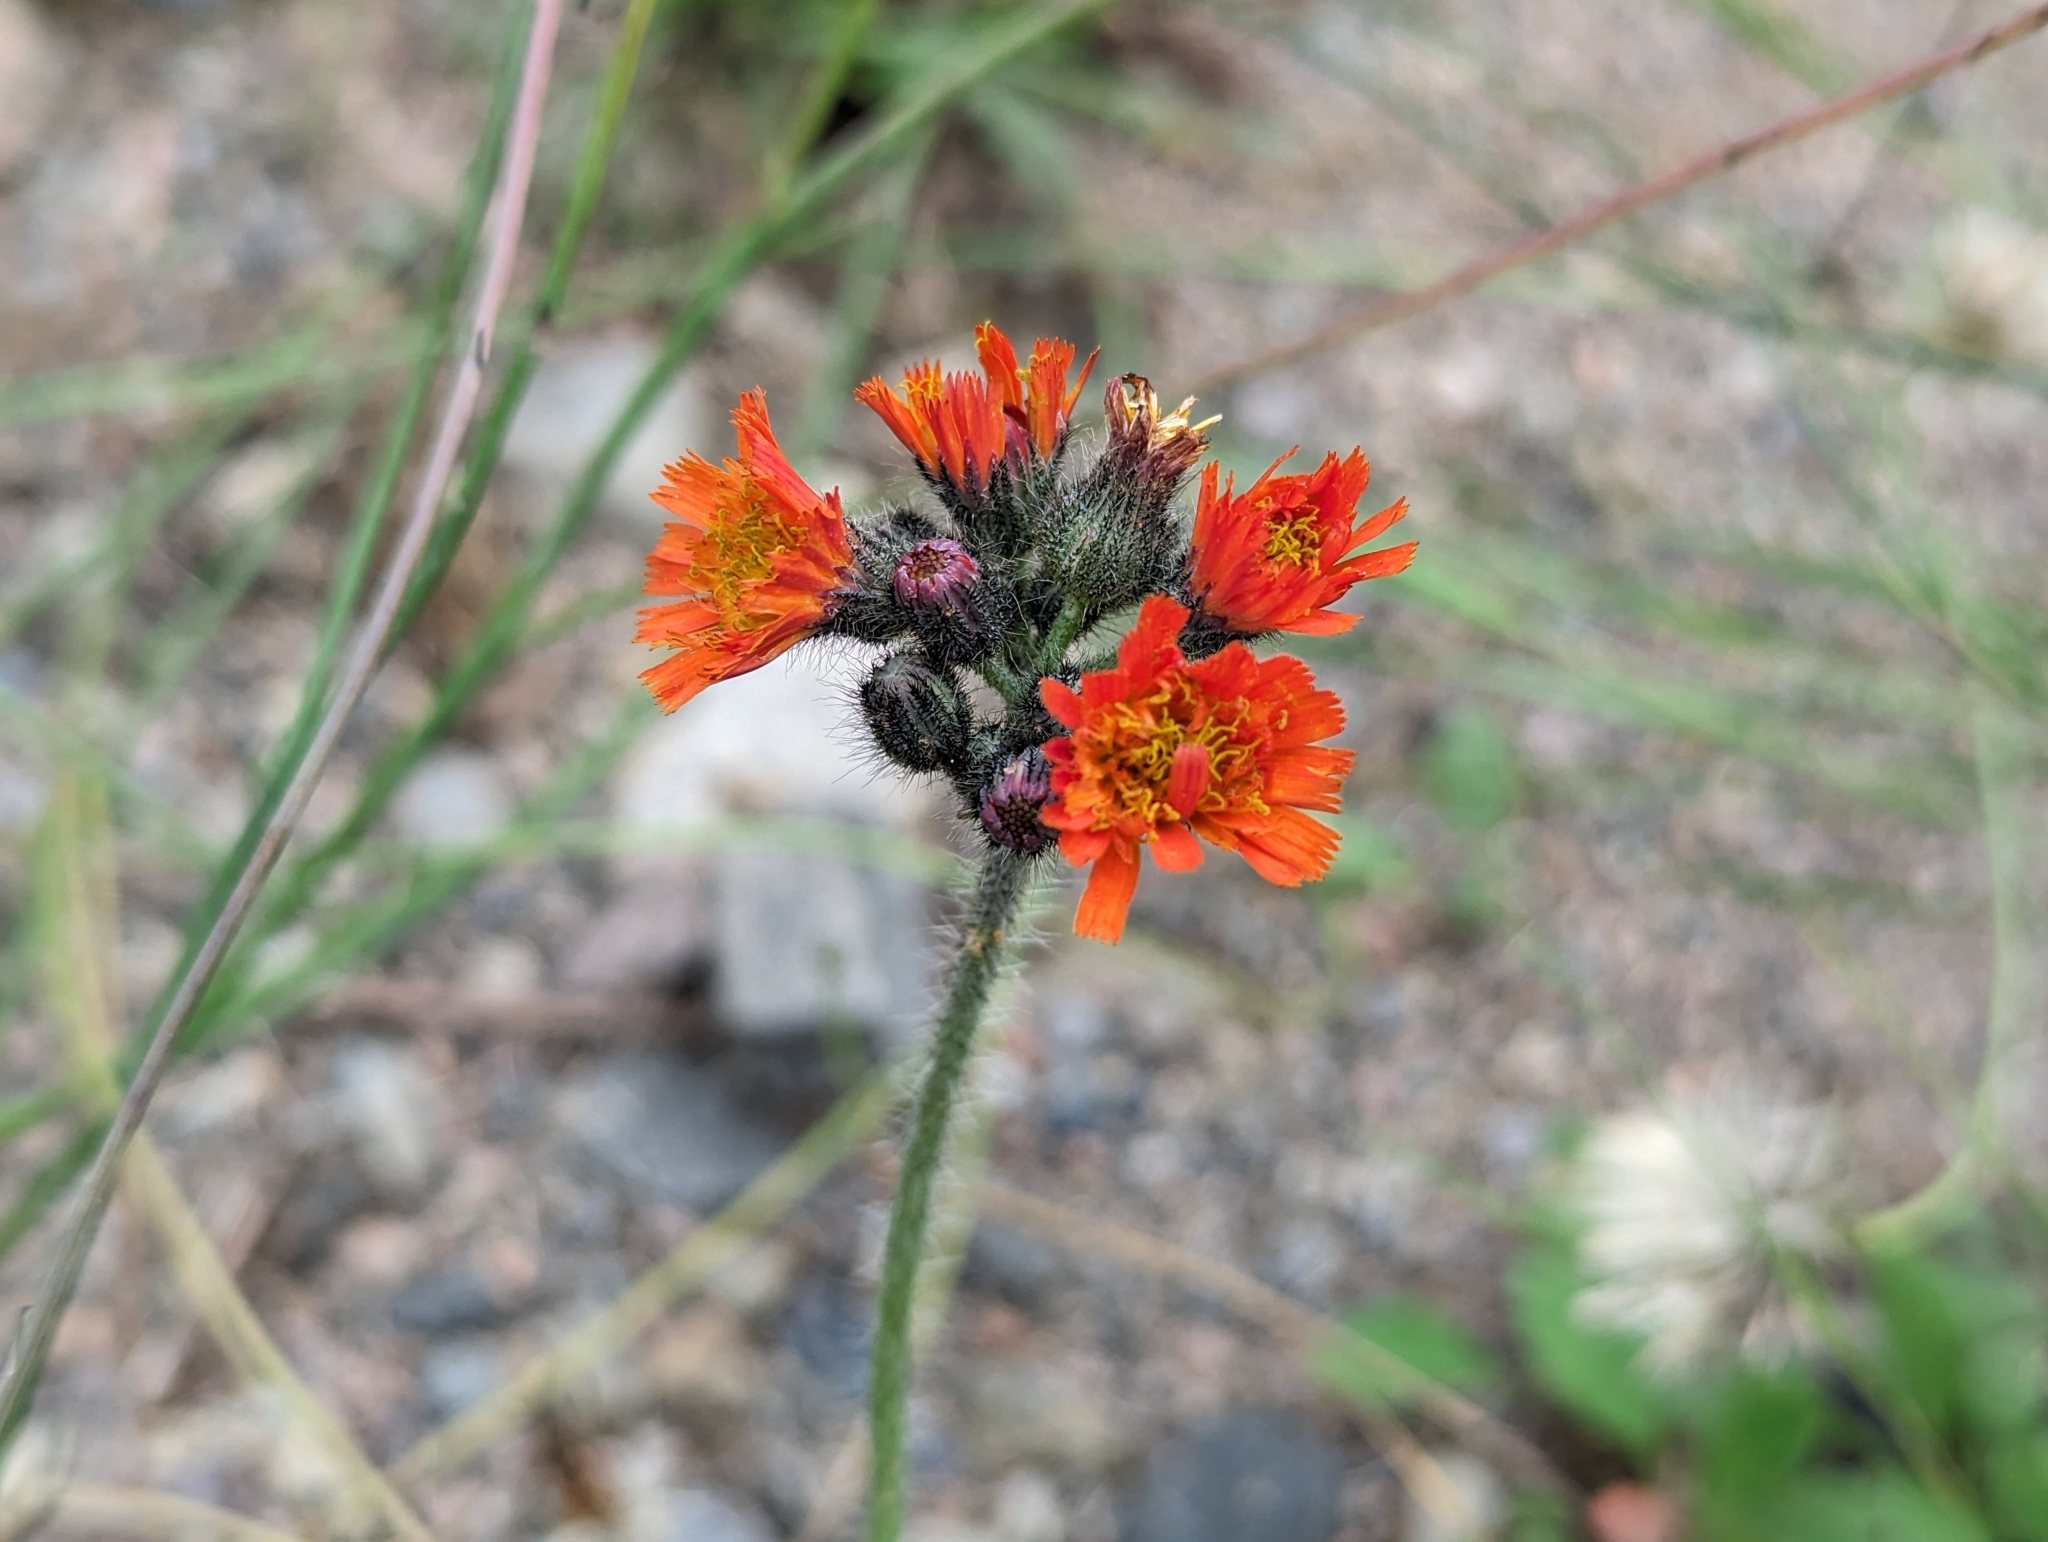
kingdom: Plantae
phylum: Tracheophyta
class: Magnoliopsida
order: Asterales
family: Asteraceae
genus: Pilosella
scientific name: Pilosella aurantiaca
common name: Fox-and-cubs
